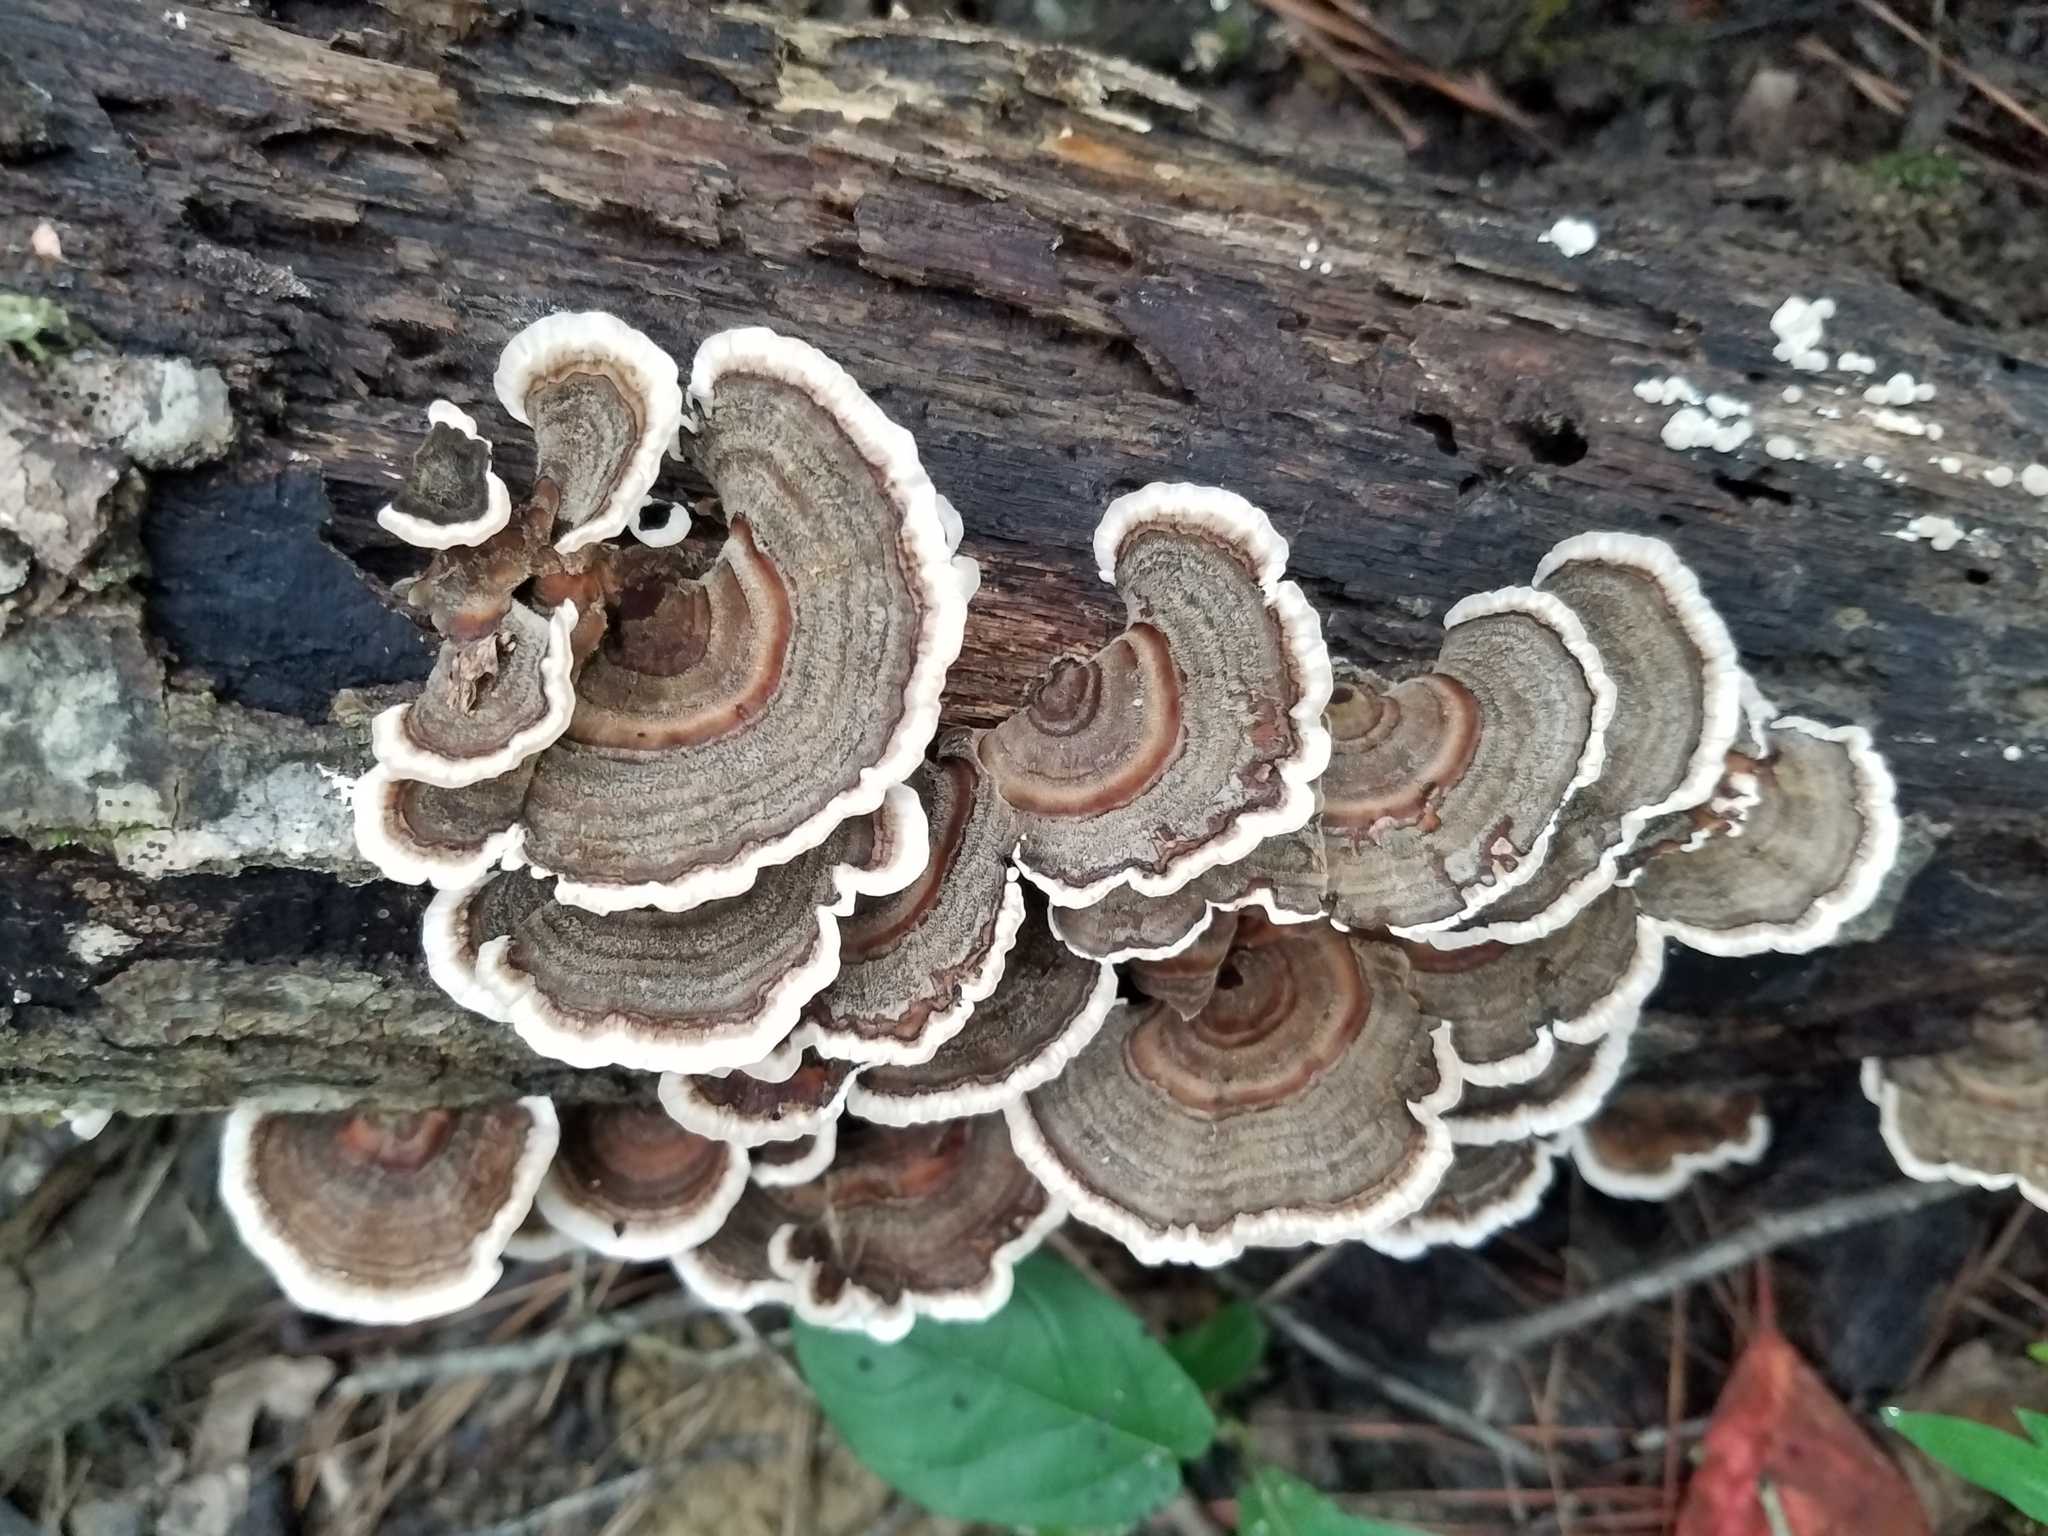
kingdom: Fungi
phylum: Basidiomycota
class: Agaricomycetes
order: Polyporales
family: Polyporaceae
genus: Trametes
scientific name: Trametes versicolor
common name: Turkeytail
